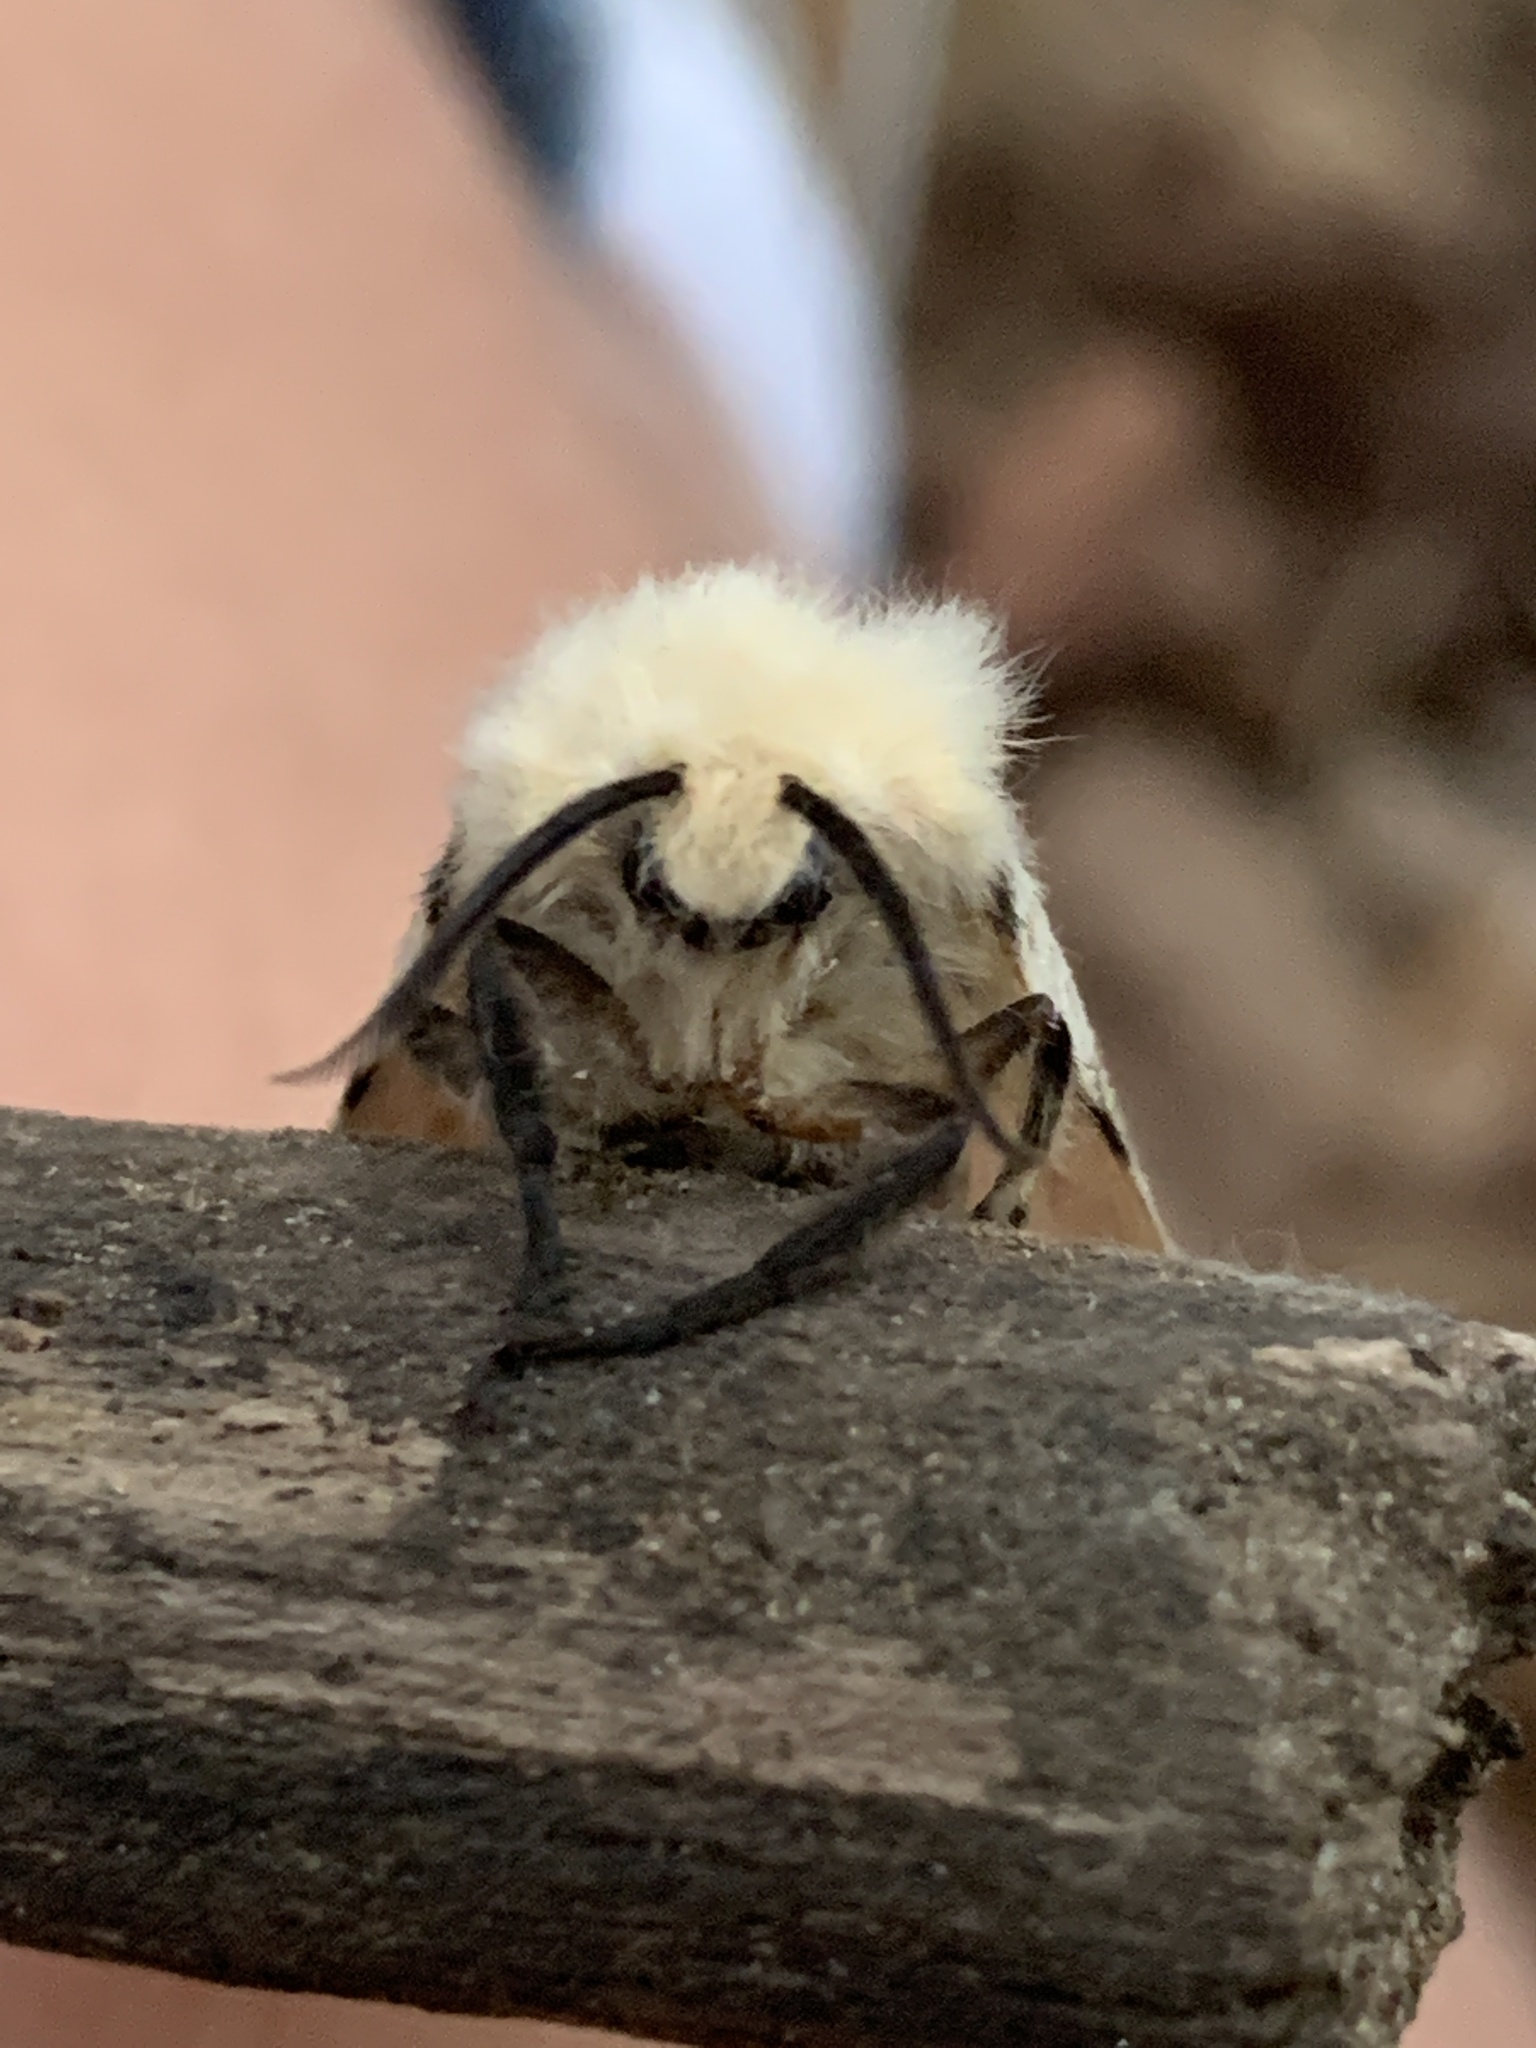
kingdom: Animalia
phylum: Arthropoda
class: Insecta
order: Lepidoptera
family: Erebidae
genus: Lymantria
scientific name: Lymantria dispar
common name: Gypsy moth
